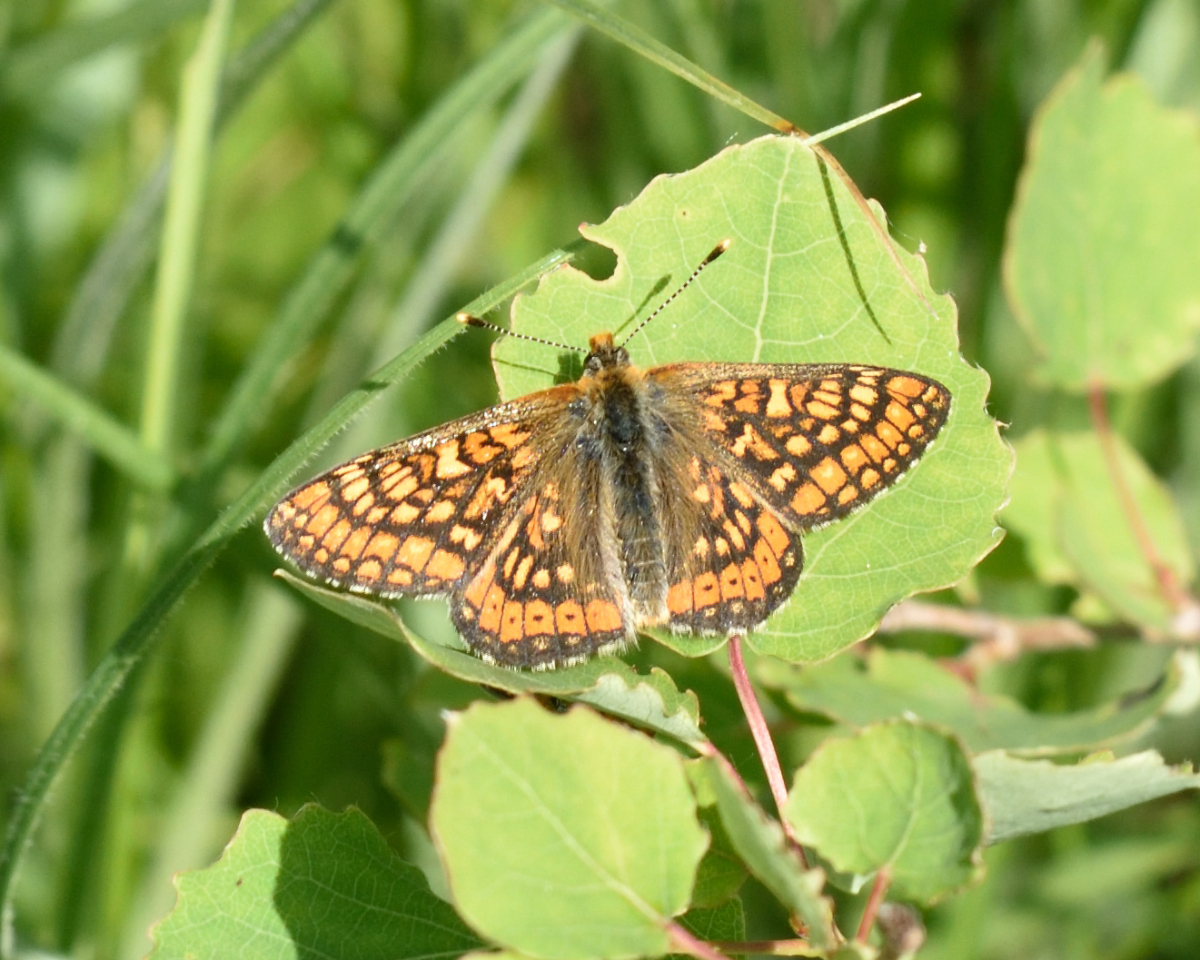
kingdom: Animalia
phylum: Arthropoda
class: Insecta
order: Lepidoptera
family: Nymphalidae
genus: Euphydryas
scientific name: Euphydryas aurinia
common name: Marsh fritillary
